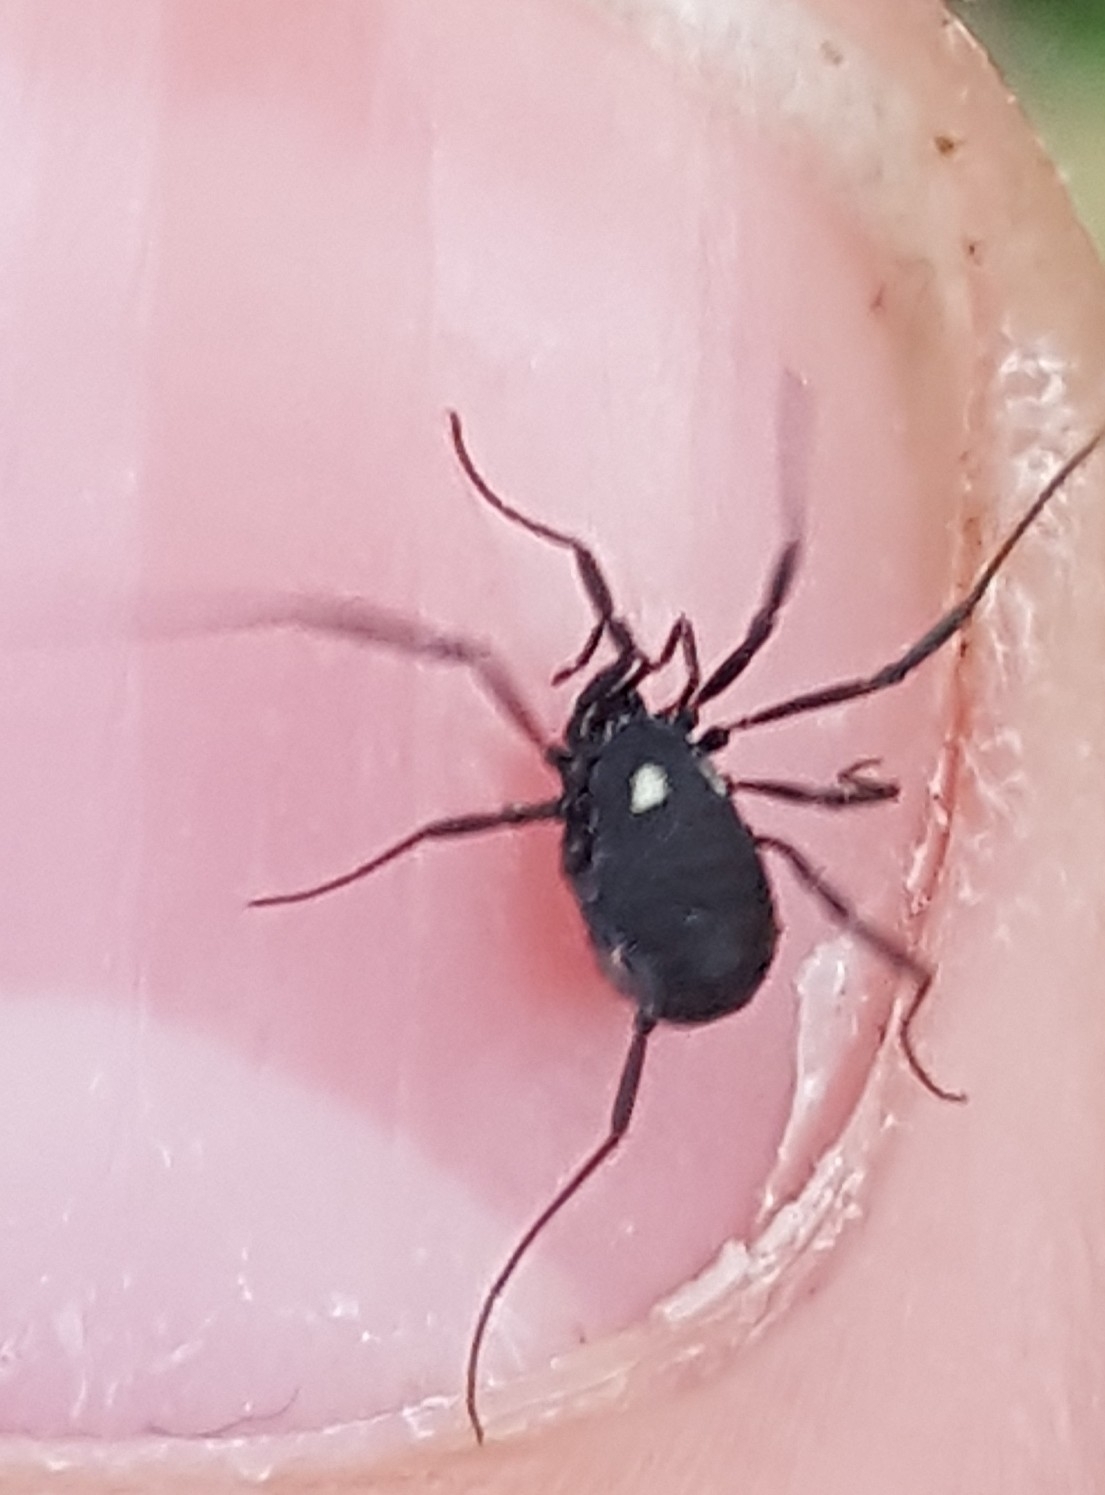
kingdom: Animalia
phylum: Arthropoda
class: Arachnida
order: Opiliones
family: Nemastomatidae
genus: Nemastoma
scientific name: Nemastoma lugubre
